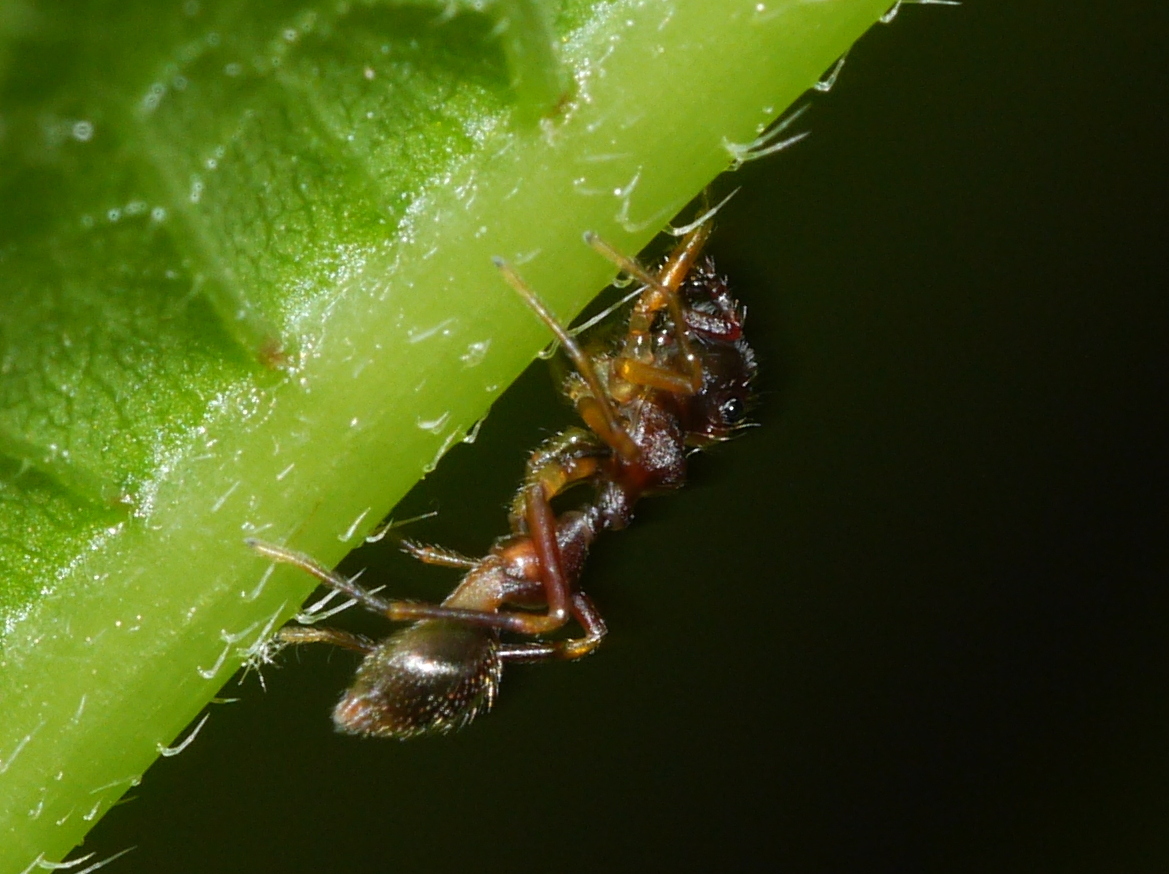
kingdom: Animalia
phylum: Arthropoda
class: Arachnida
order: Araneae
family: Salticidae
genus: Synemosyna
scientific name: Synemosyna formica
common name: Slender ant-mimic jumping spider
